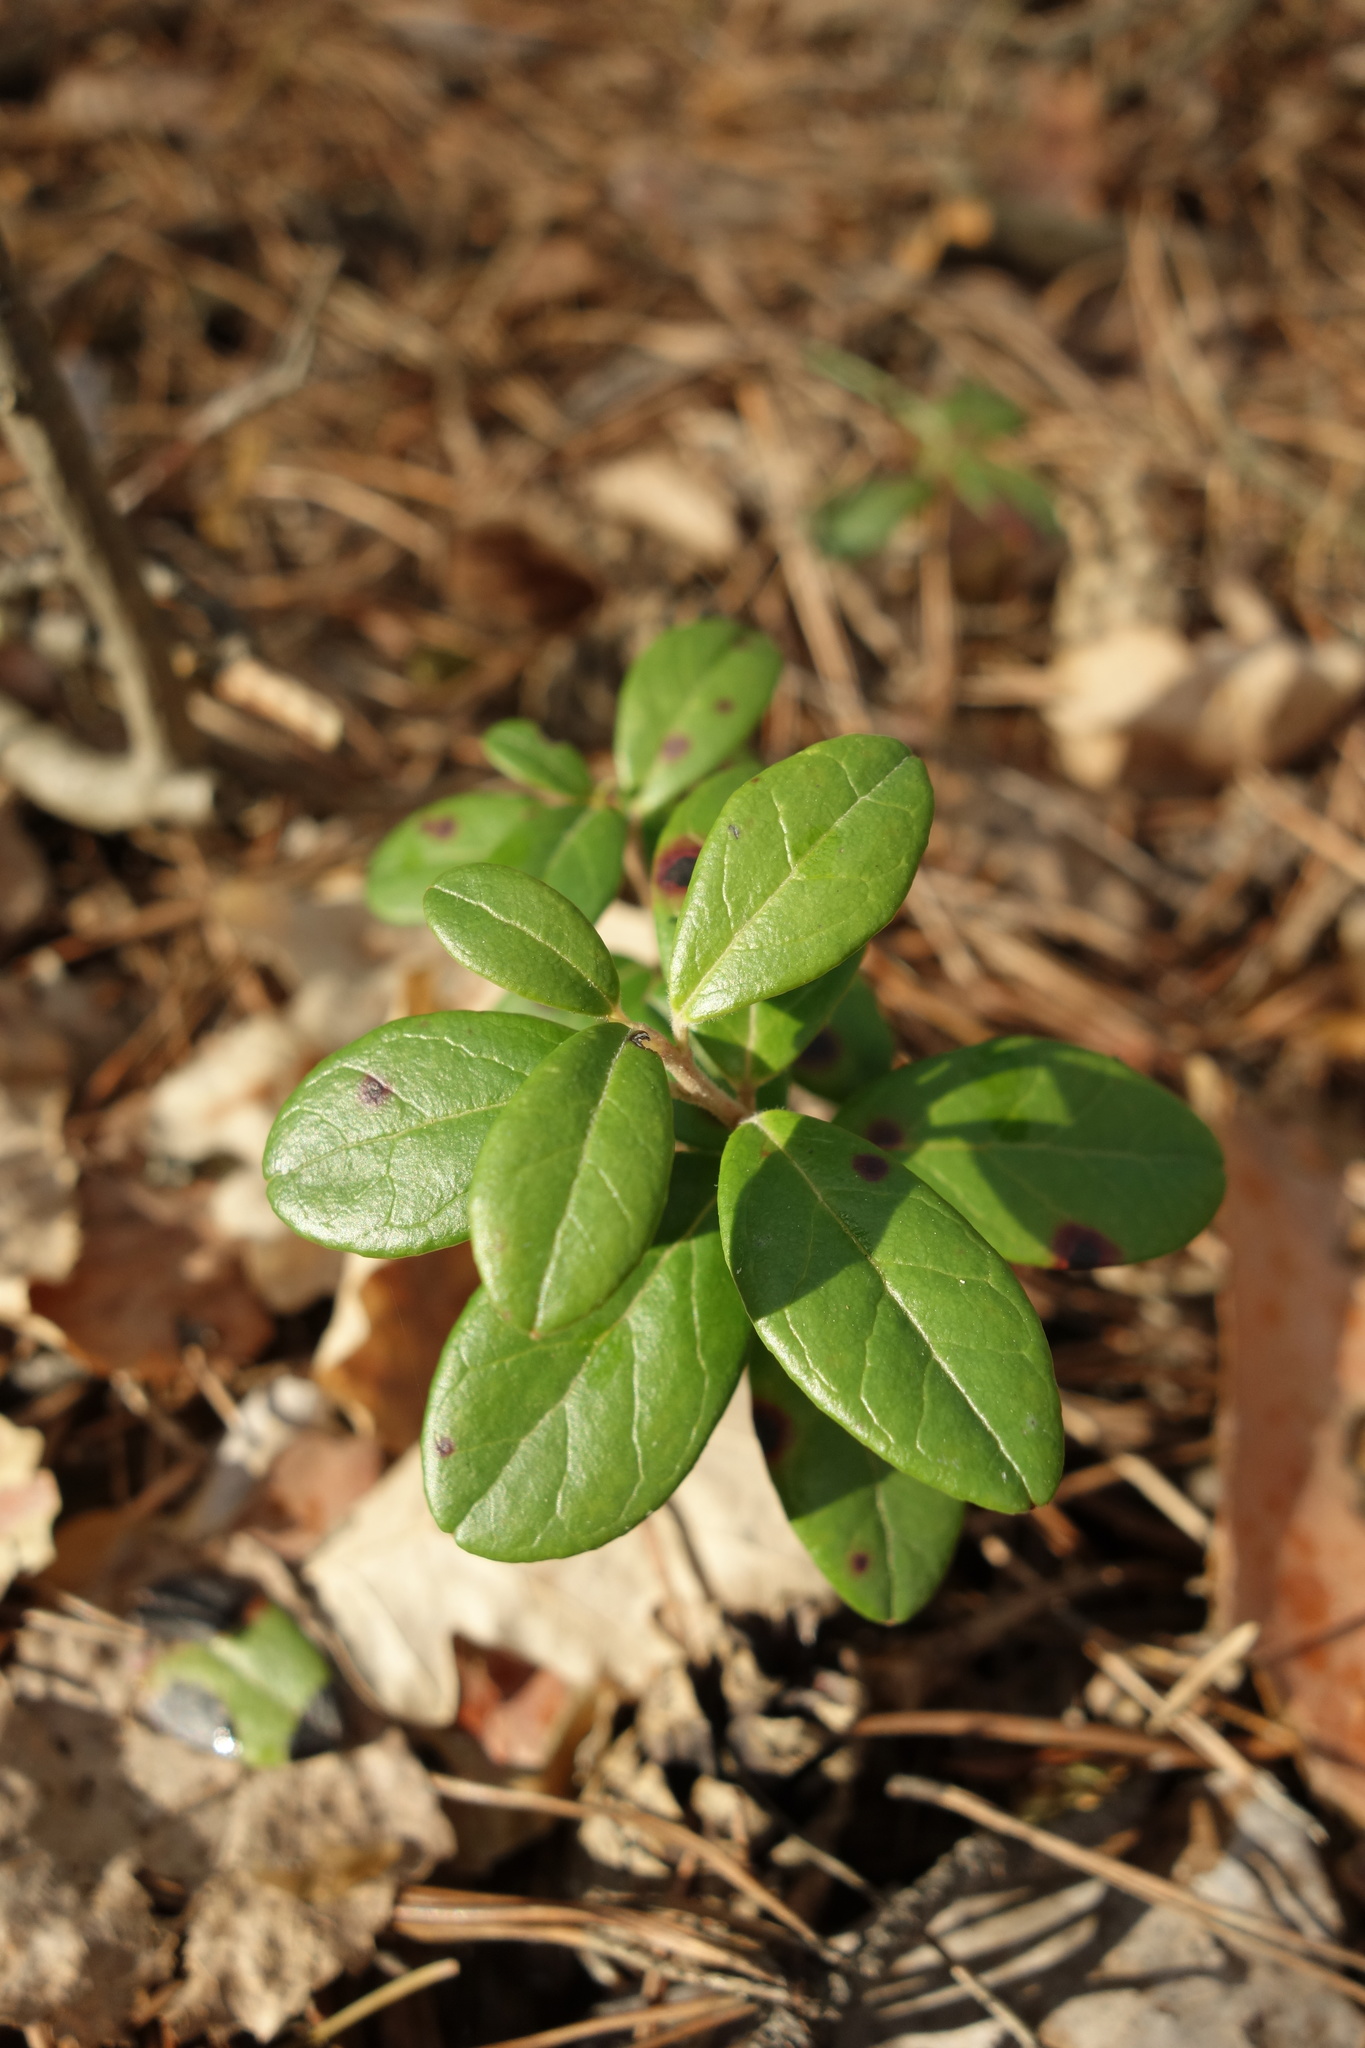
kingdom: Plantae
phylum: Tracheophyta
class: Magnoliopsida
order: Ericales
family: Ericaceae
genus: Vaccinium
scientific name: Vaccinium vitis-idaea
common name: Cowberry
